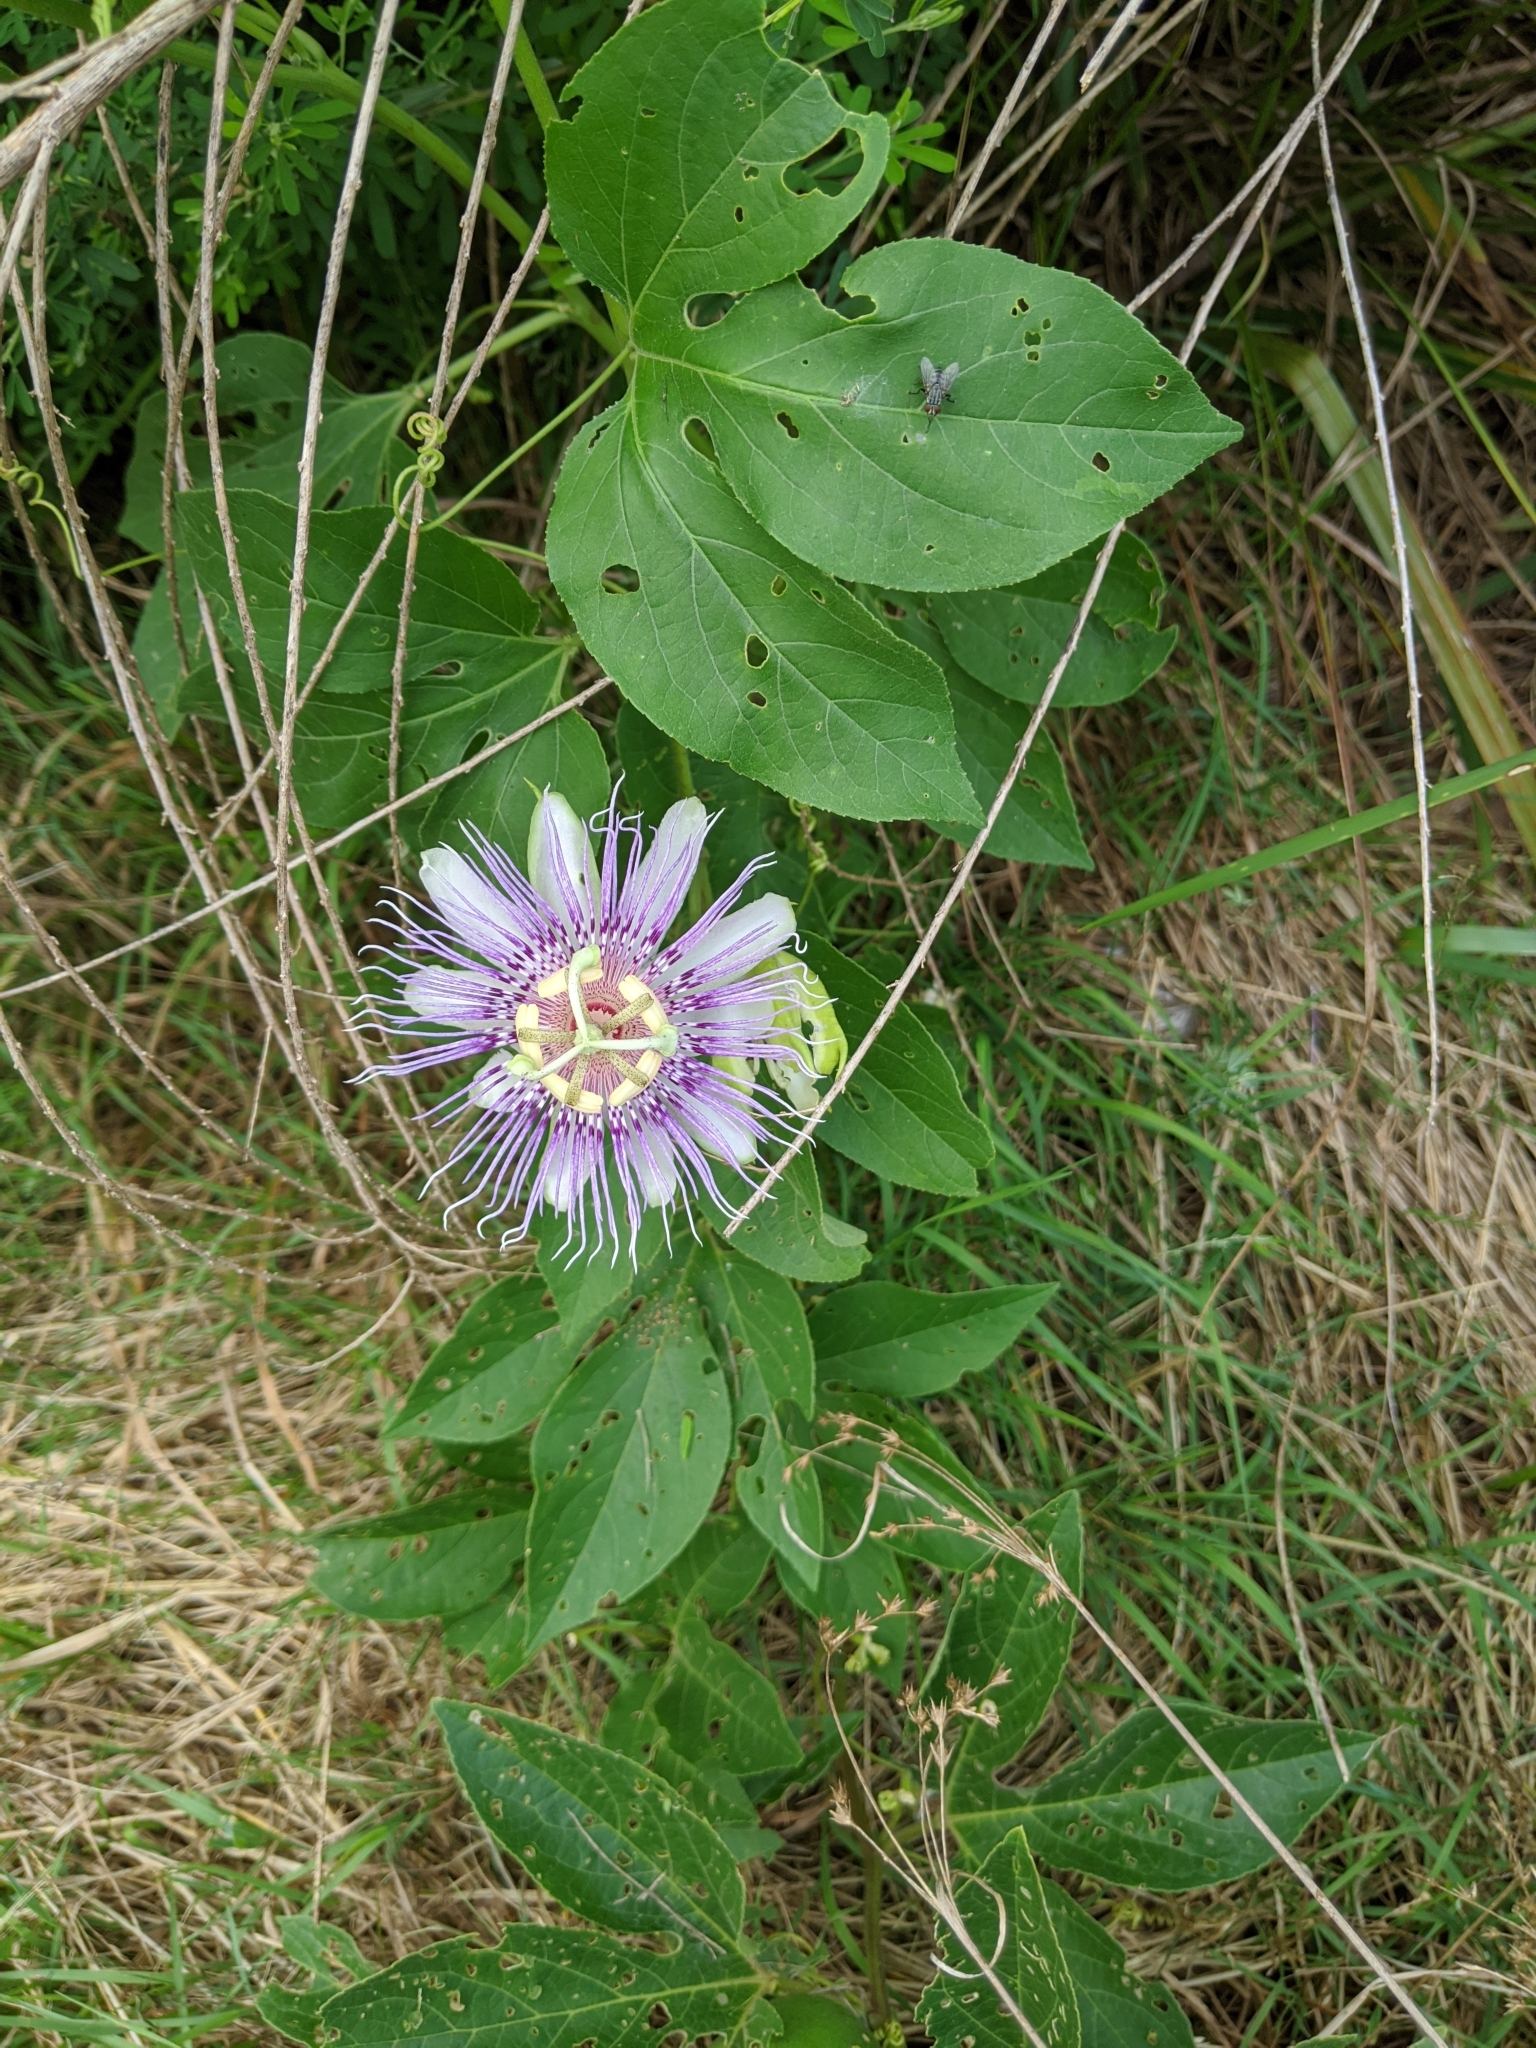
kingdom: Plantae
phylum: Tracheophyta
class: Magnoliopsida
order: Malpighiales
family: Passifloraceae
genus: Passiflora
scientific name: Passiflora incarnata
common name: Apricot-vine
